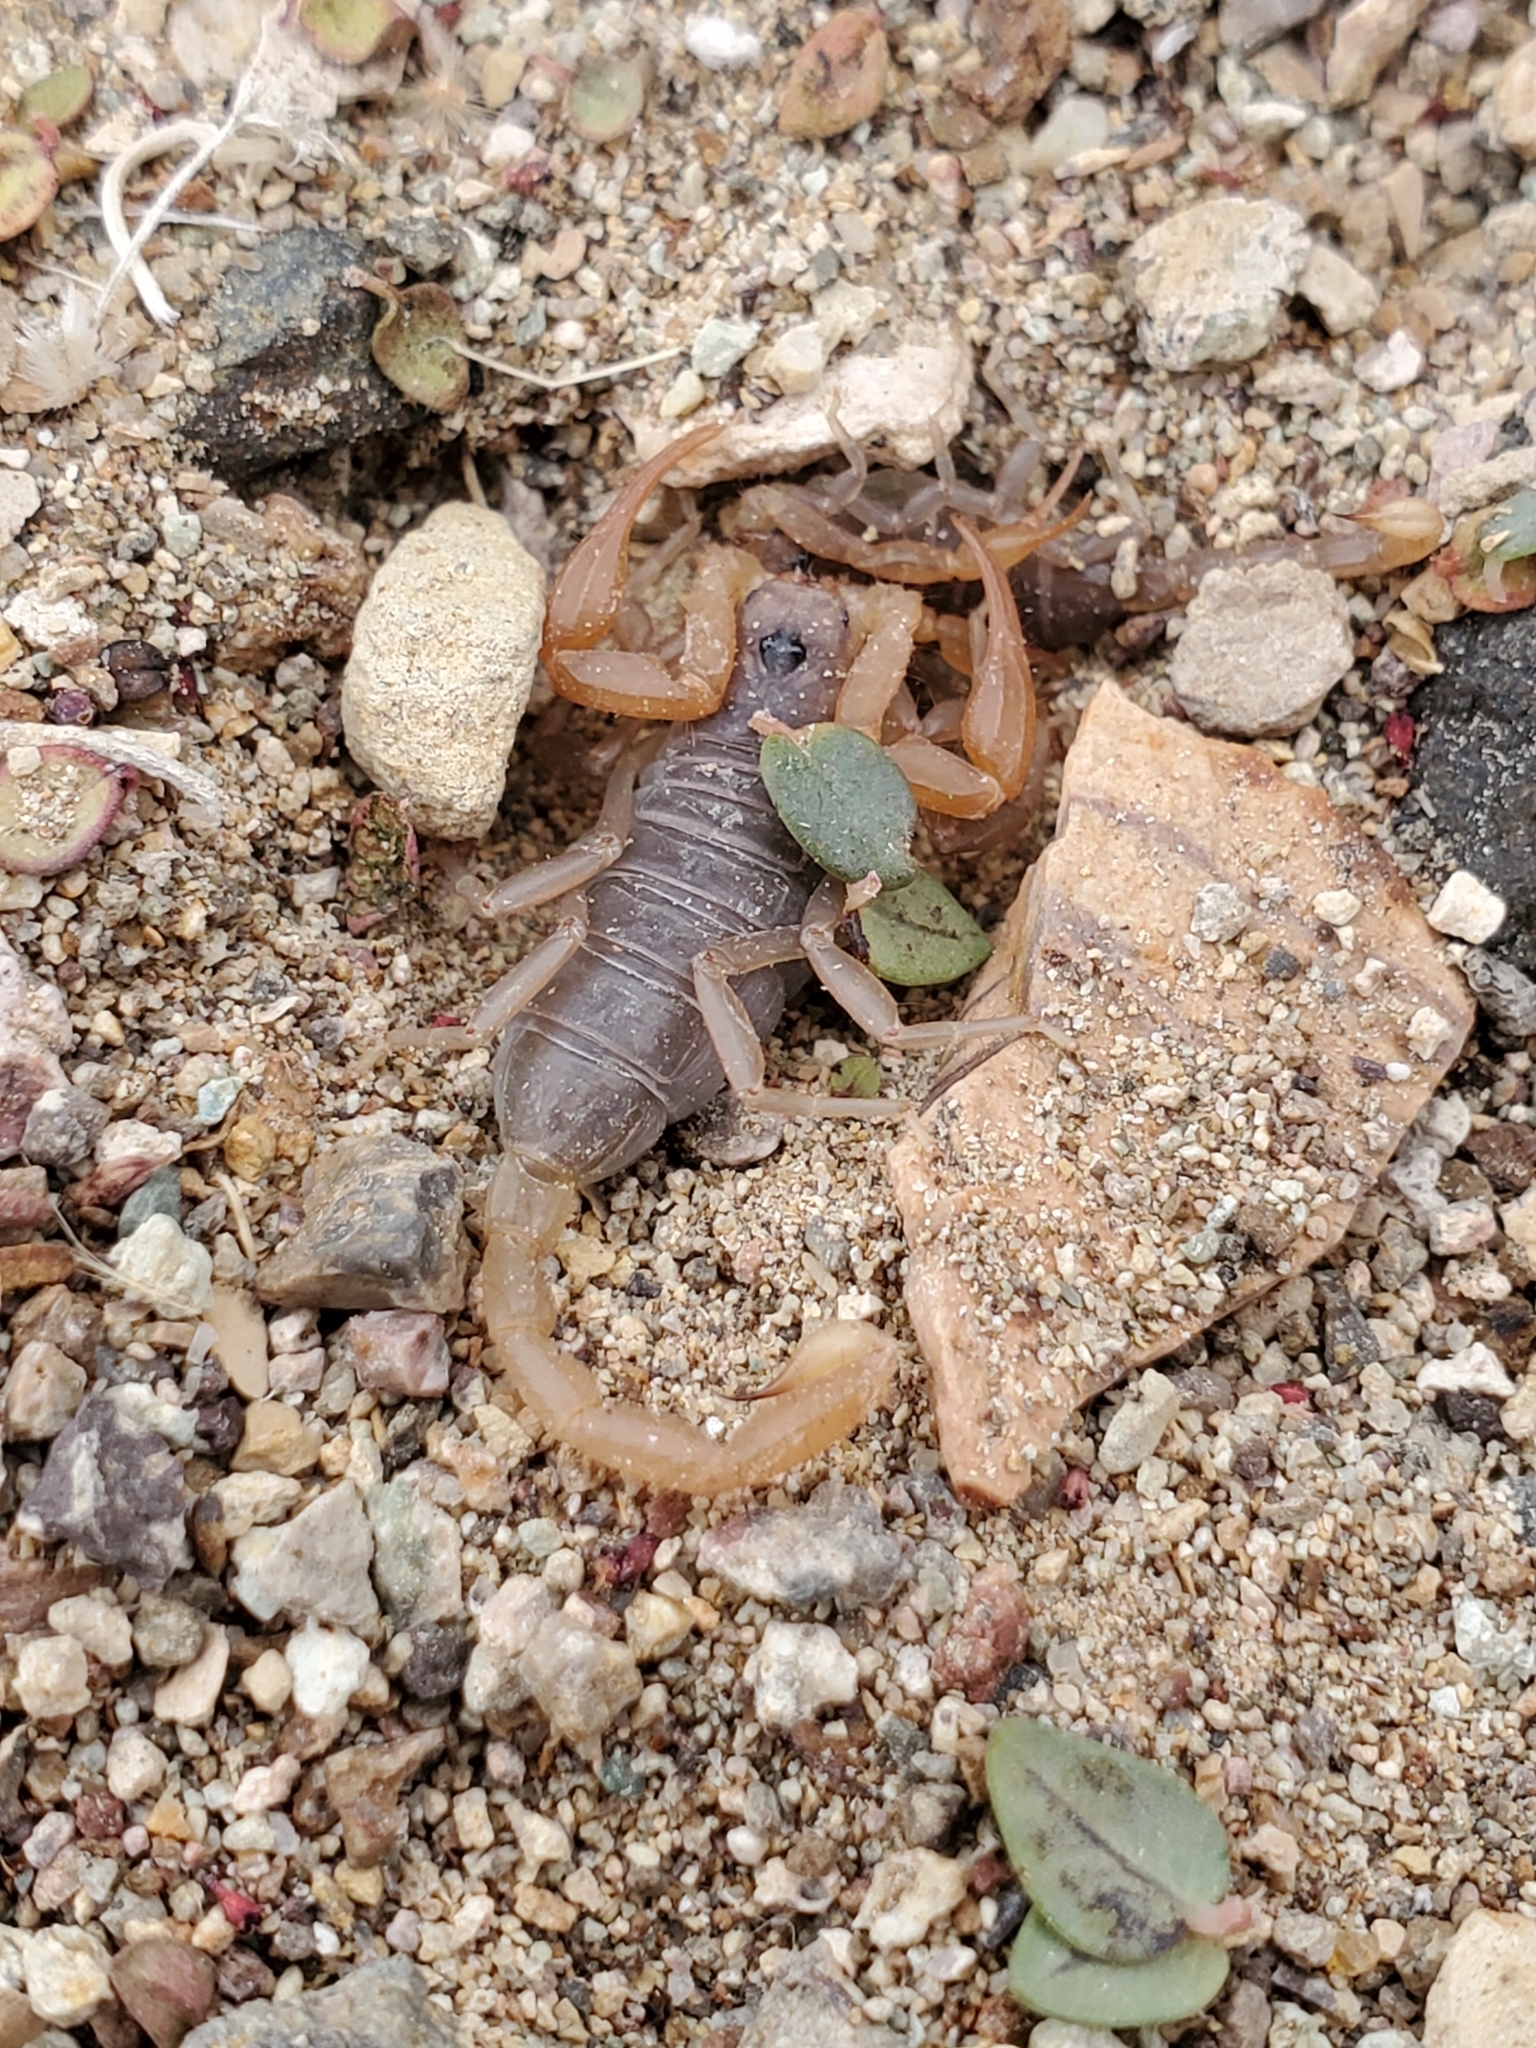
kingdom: Animalia
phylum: Arthropoda
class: Arachnida
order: Scorpiones
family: Vaejovidae
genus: Smeringurus
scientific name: Smeringurus vachoni
